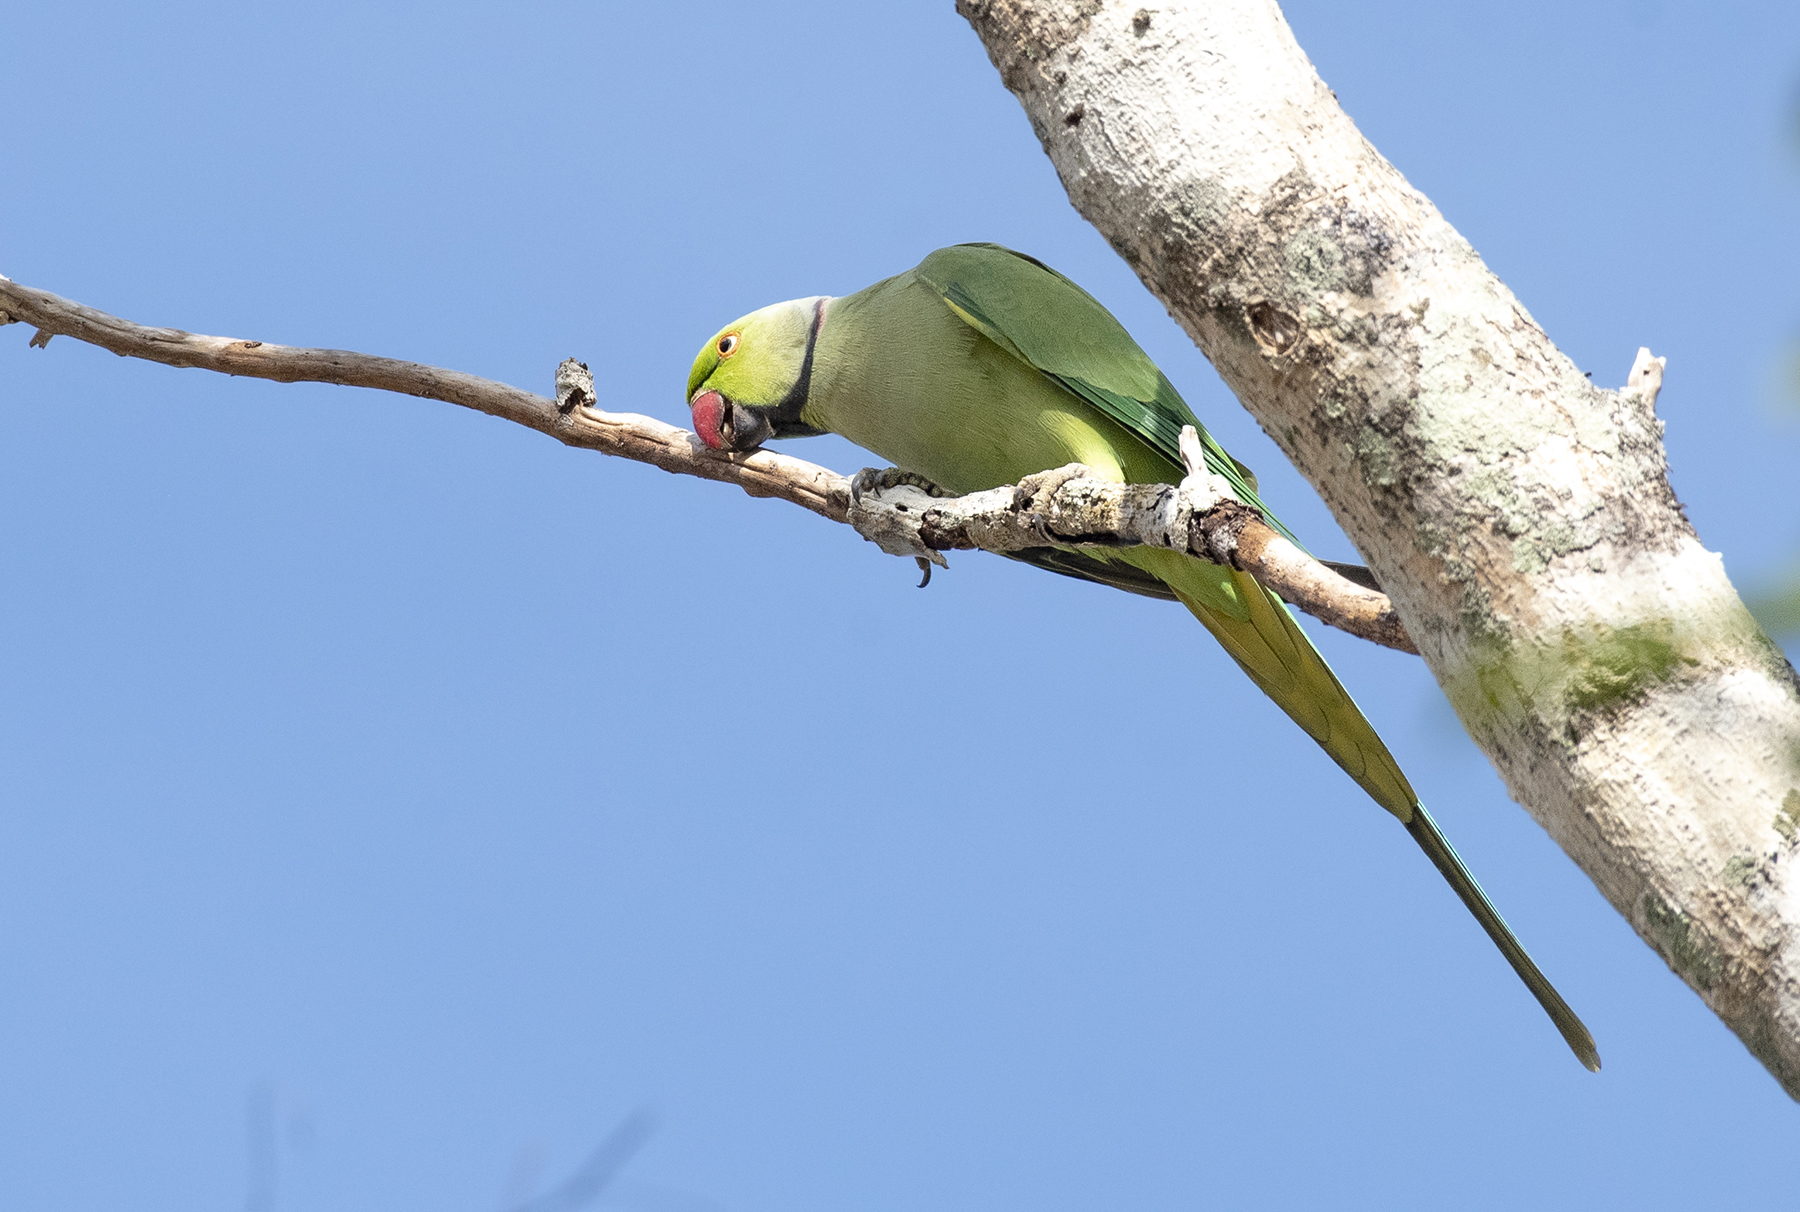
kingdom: Animalia
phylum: Chordata
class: Aves
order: Psittaciformes
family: Psittacidae
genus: Psittacula
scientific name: Psittacula krameri
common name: Rose-ringed parakeet
